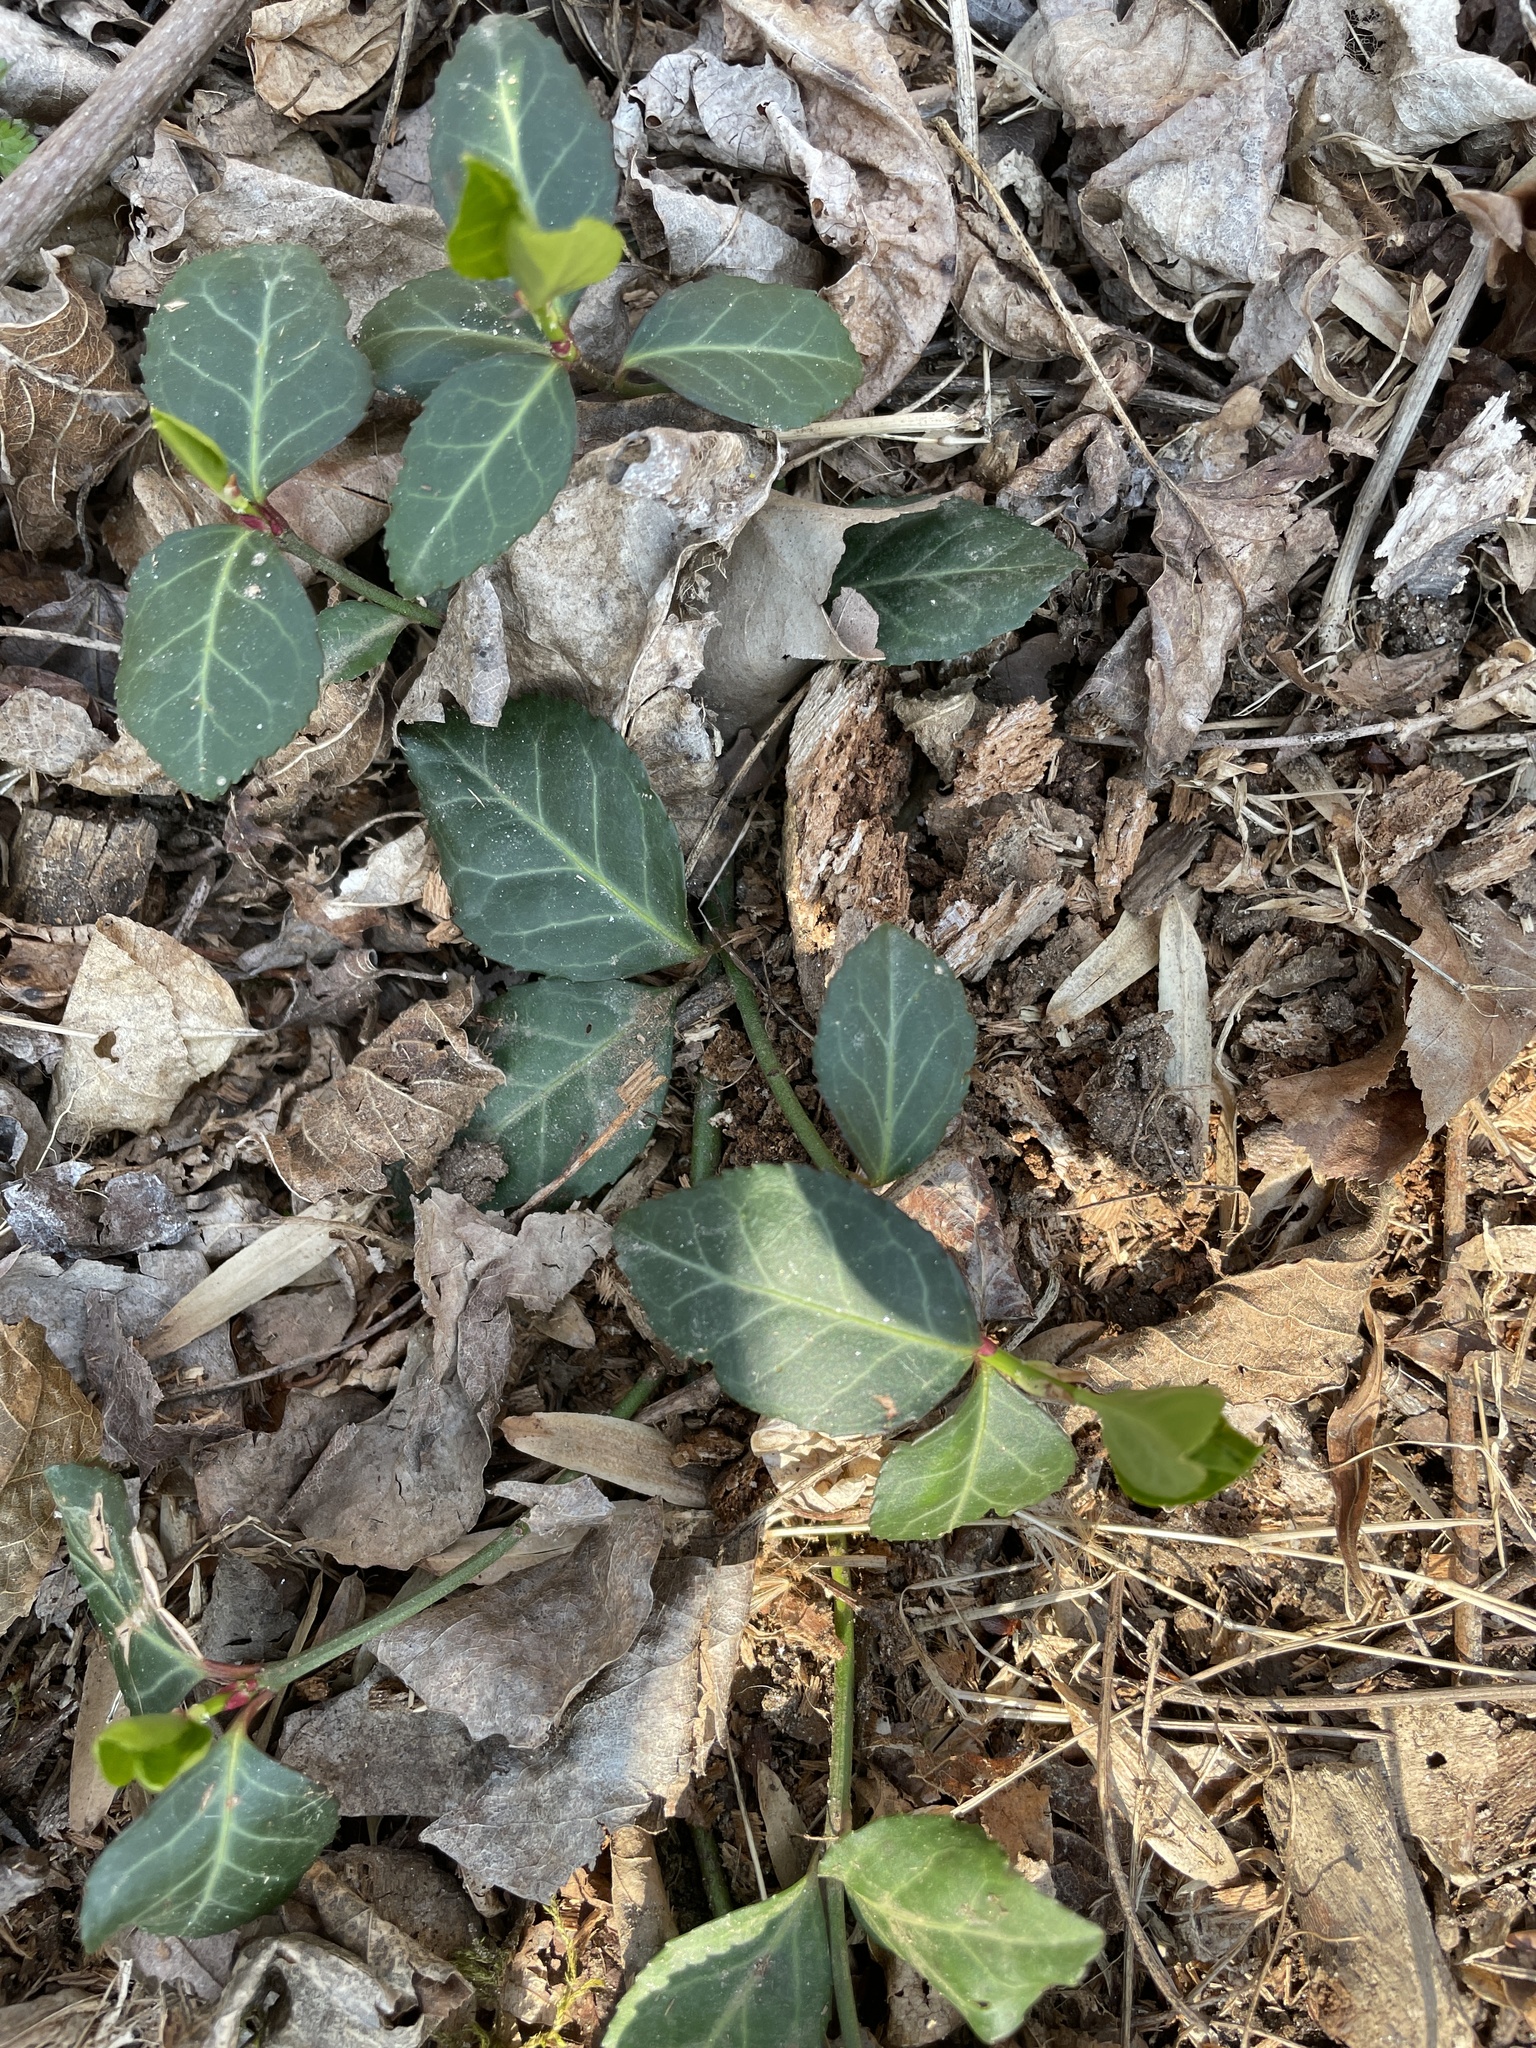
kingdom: Plantae
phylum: Tracheophyta
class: Magnoliopsida
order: Celastrales
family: Celastraceae
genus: Euonymus
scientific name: Euonymus fortunei
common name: Climbing euonymus
